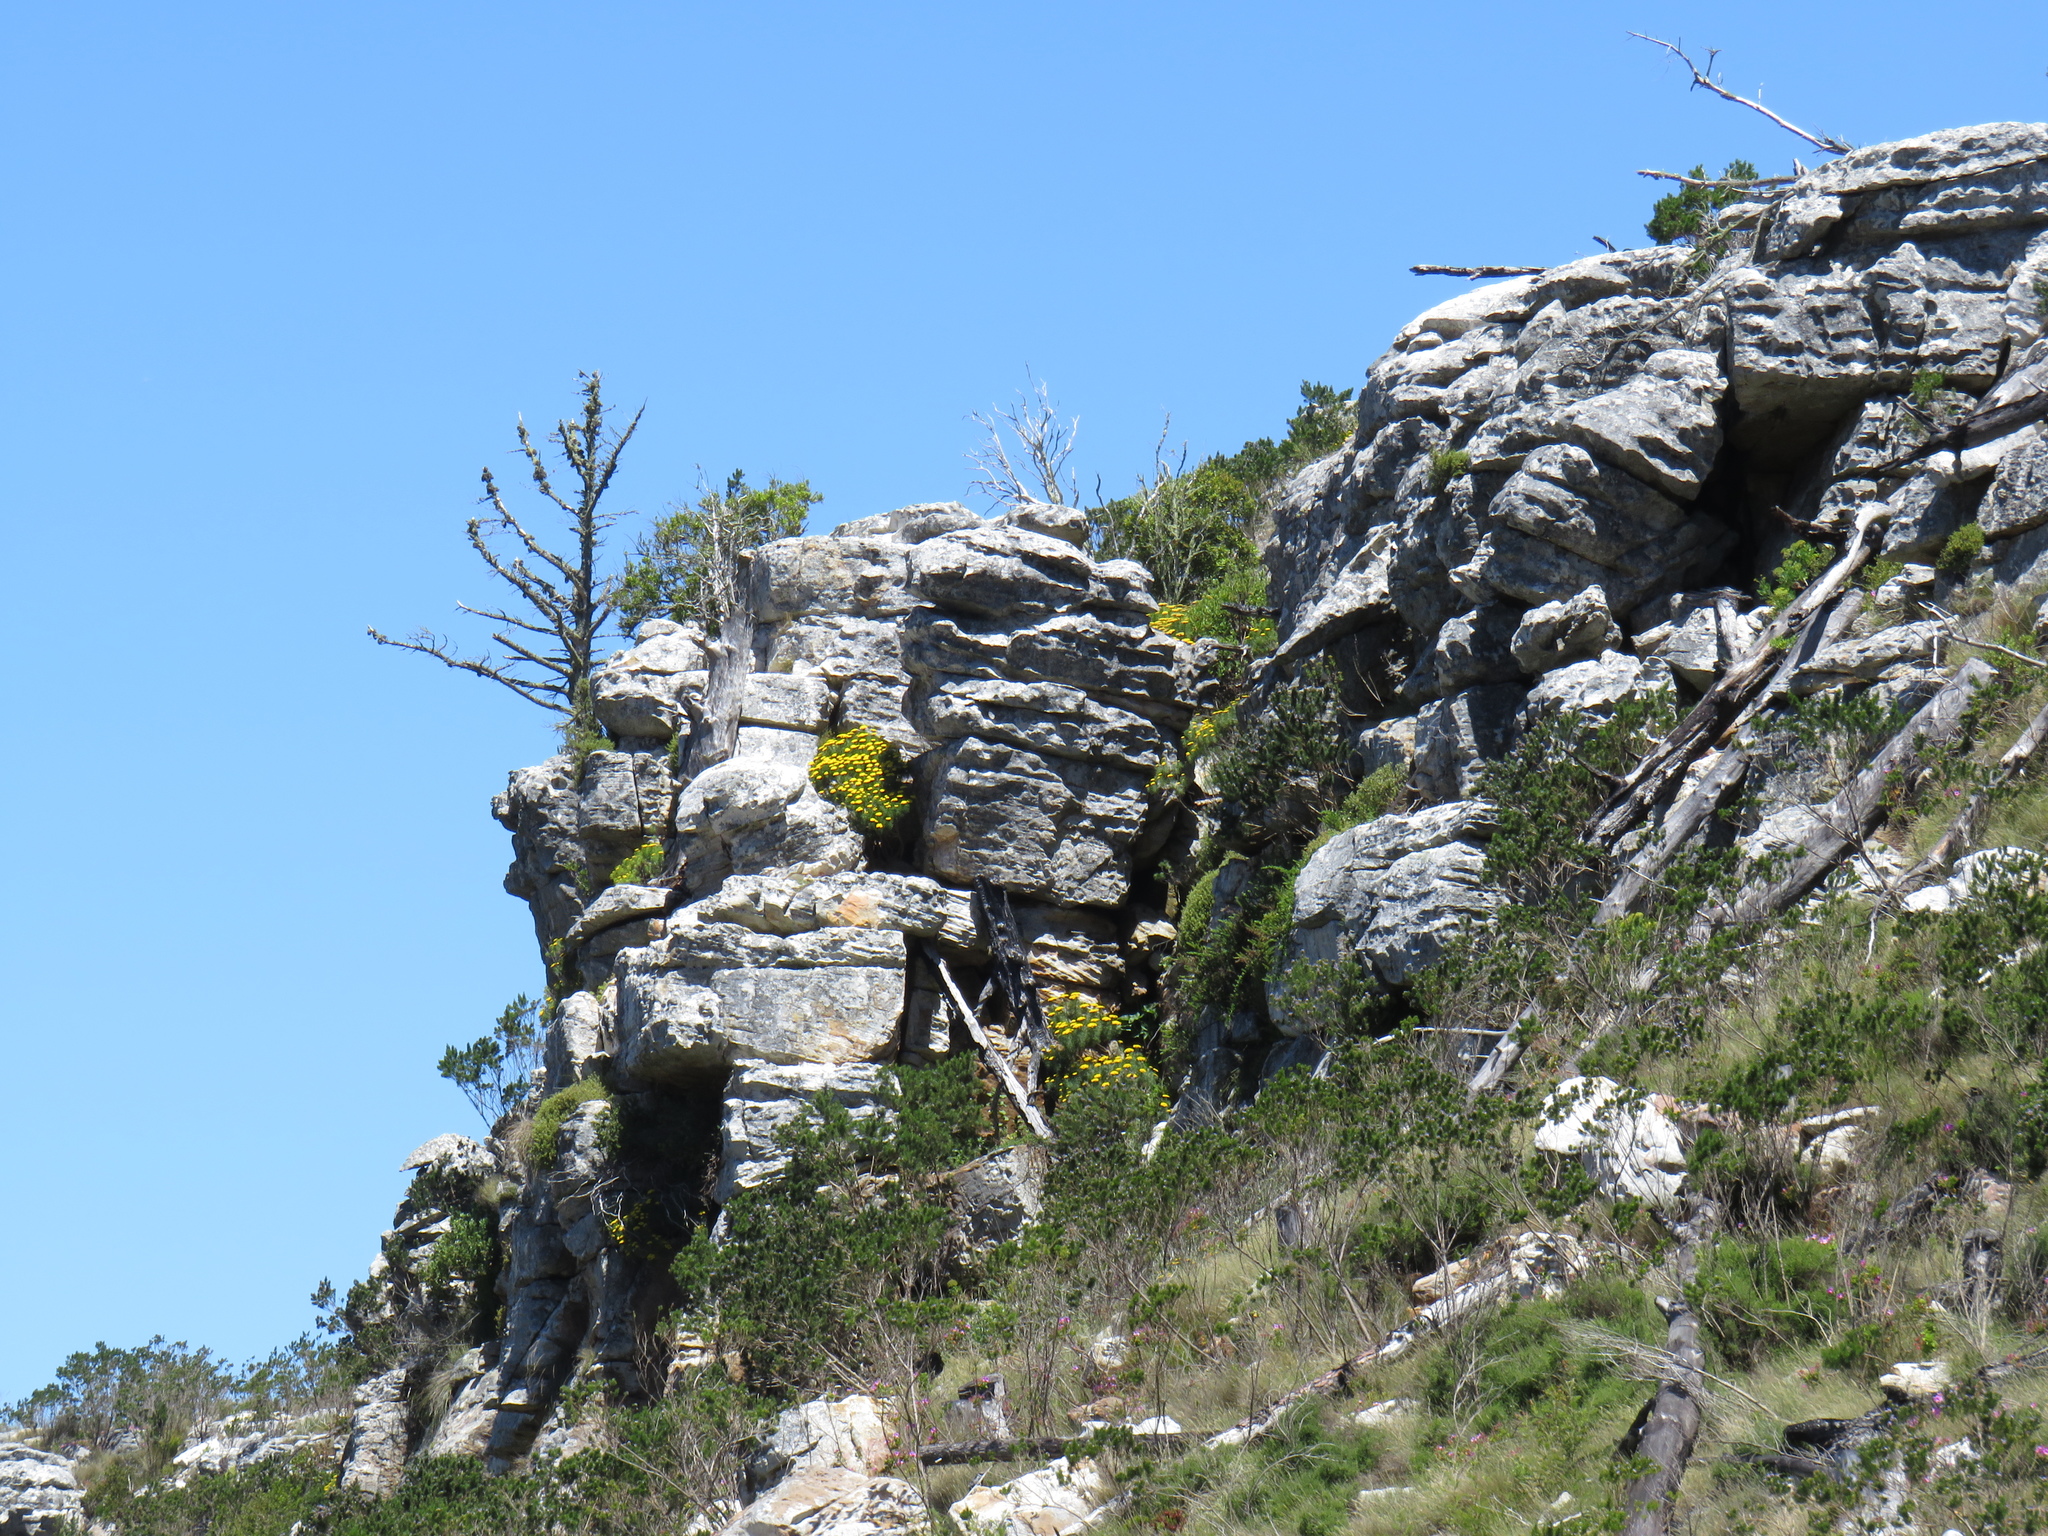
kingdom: Plantae
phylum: Tracheophyta
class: Magnoliopsida
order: Asterales
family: Asteraceae
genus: Hymenolepis
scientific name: Hymenolepis crithmifolia
